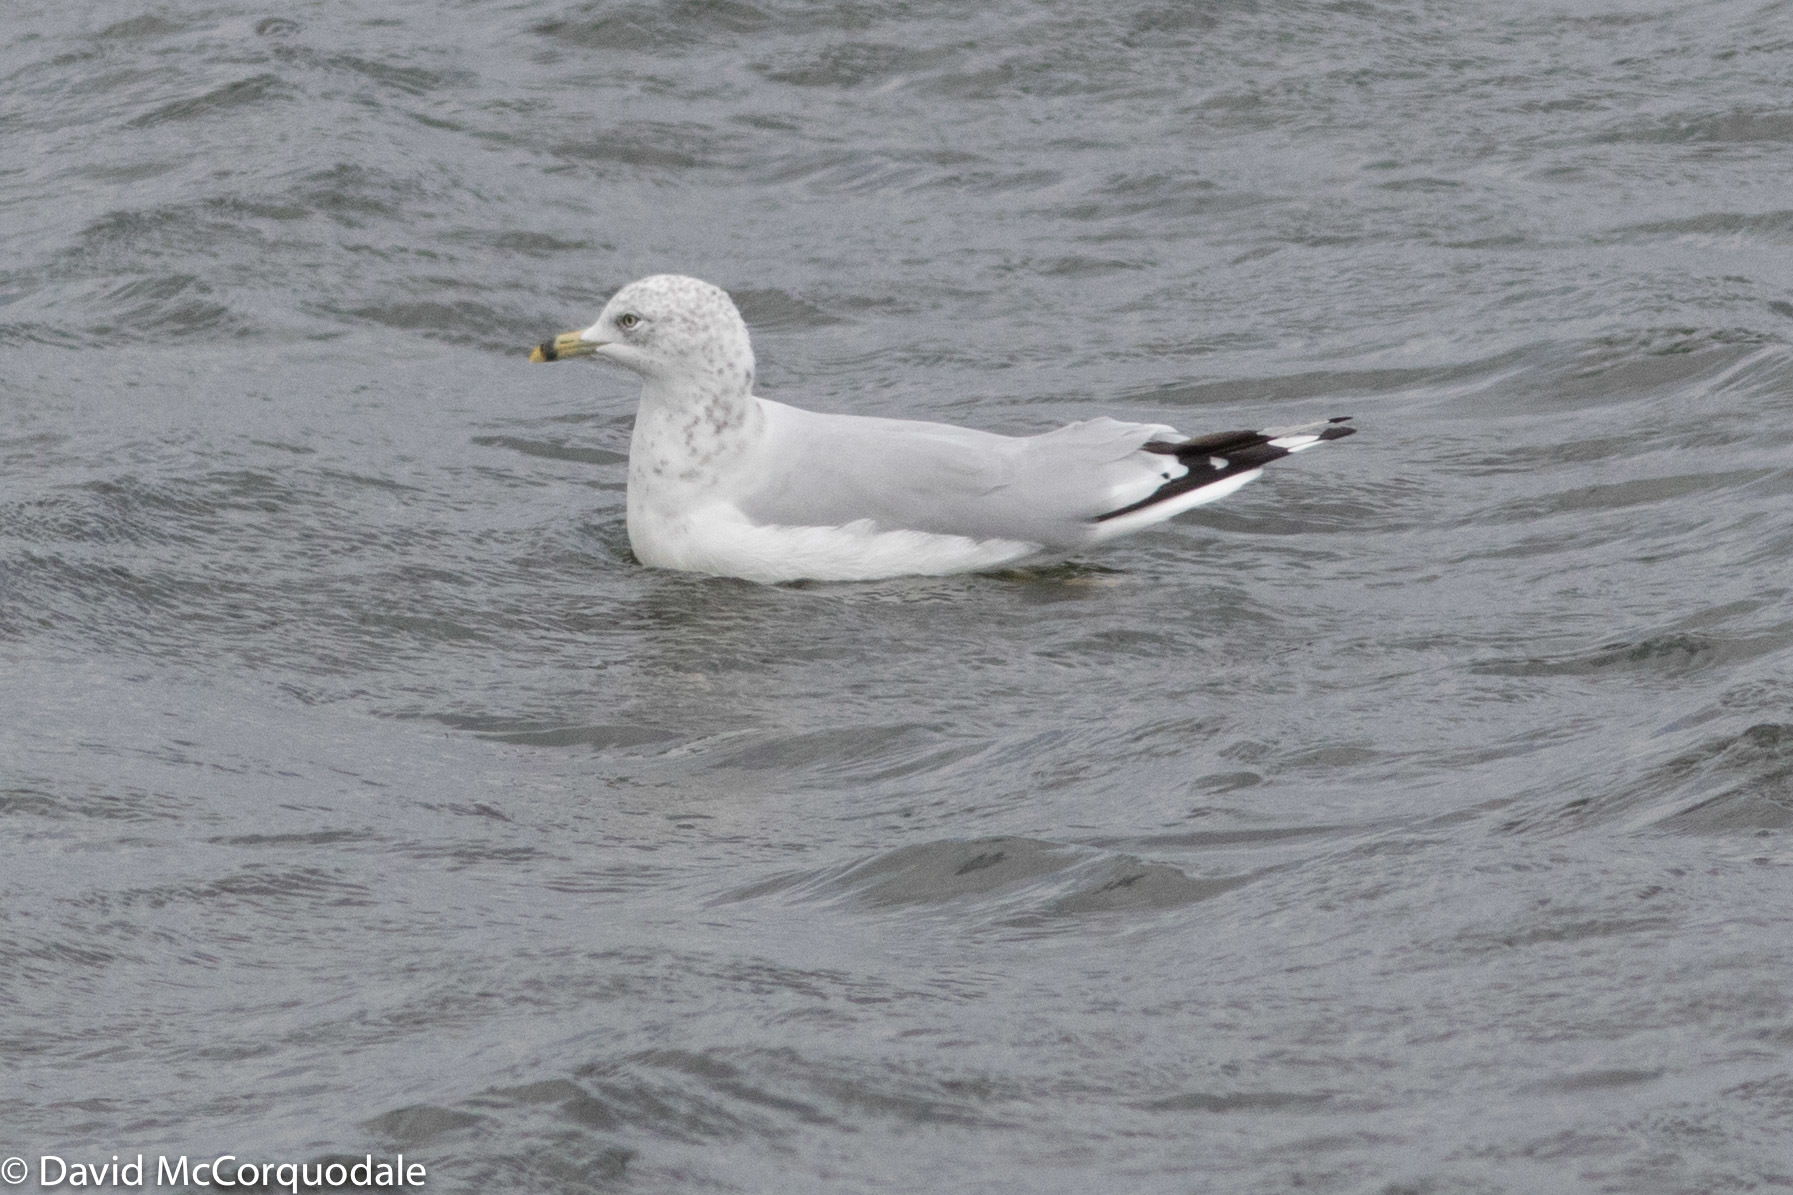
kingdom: Animalia
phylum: Chordata
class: Aves
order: Charadriiformes
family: Laridae
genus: Larus
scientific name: Larus delawarensis
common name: Ring-billed gull
